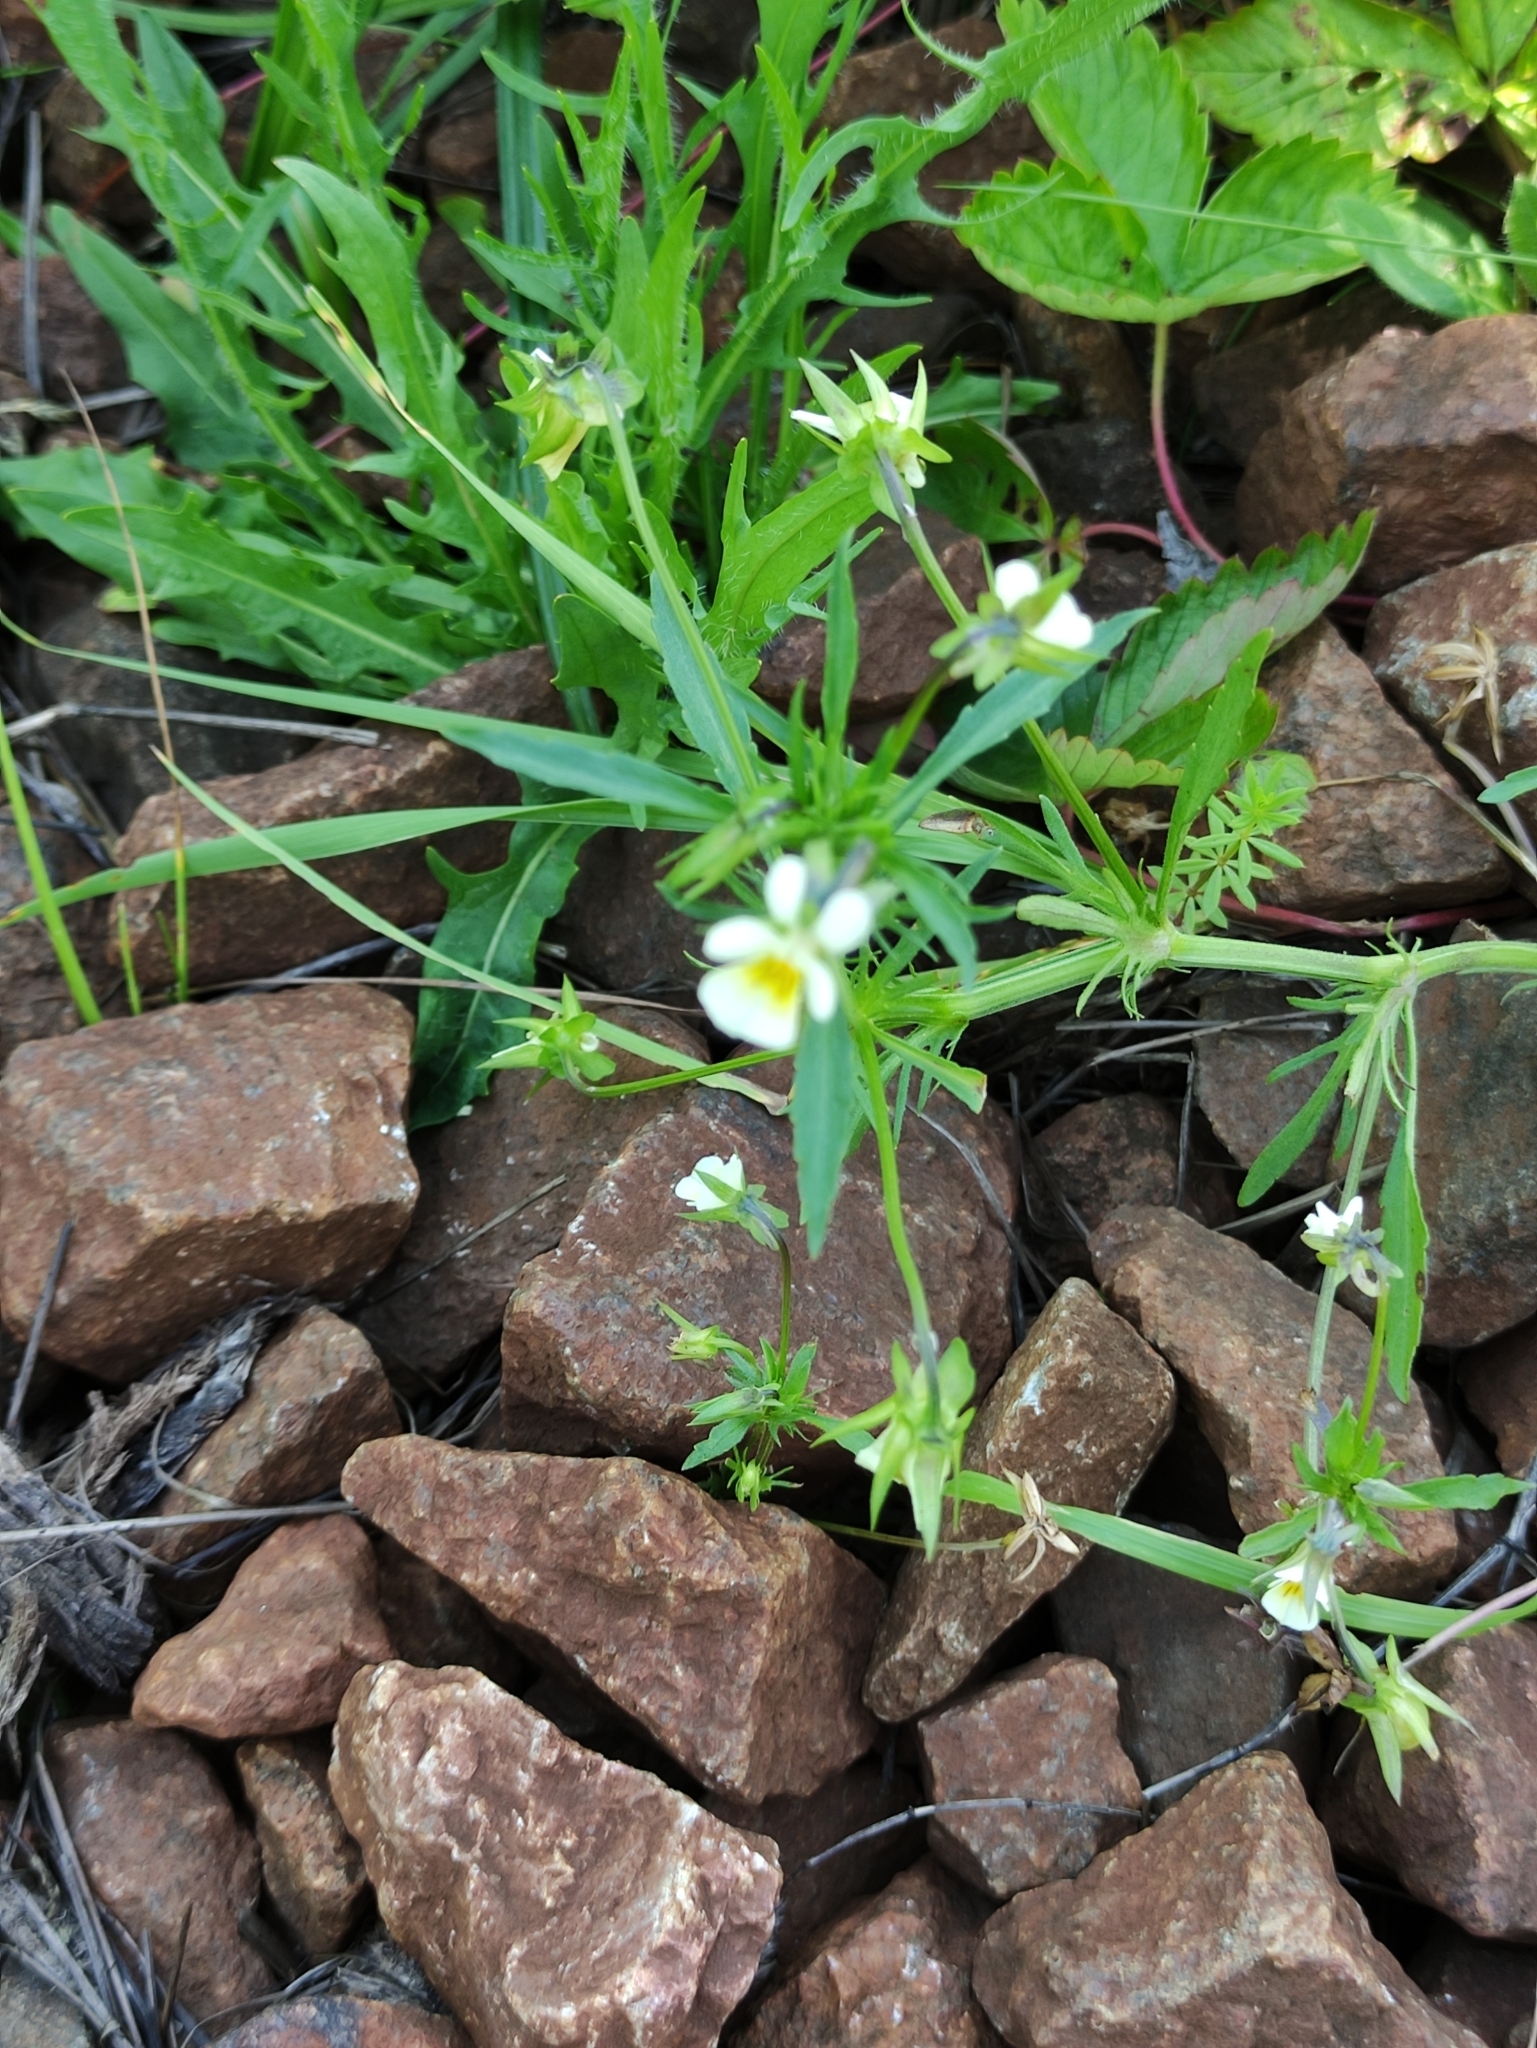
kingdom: Plantae
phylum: Tracheophyta
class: Magnoliopsida
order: Malpighiales
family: Violaceae
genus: Viola
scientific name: Viola arvensis
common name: Field pansy
